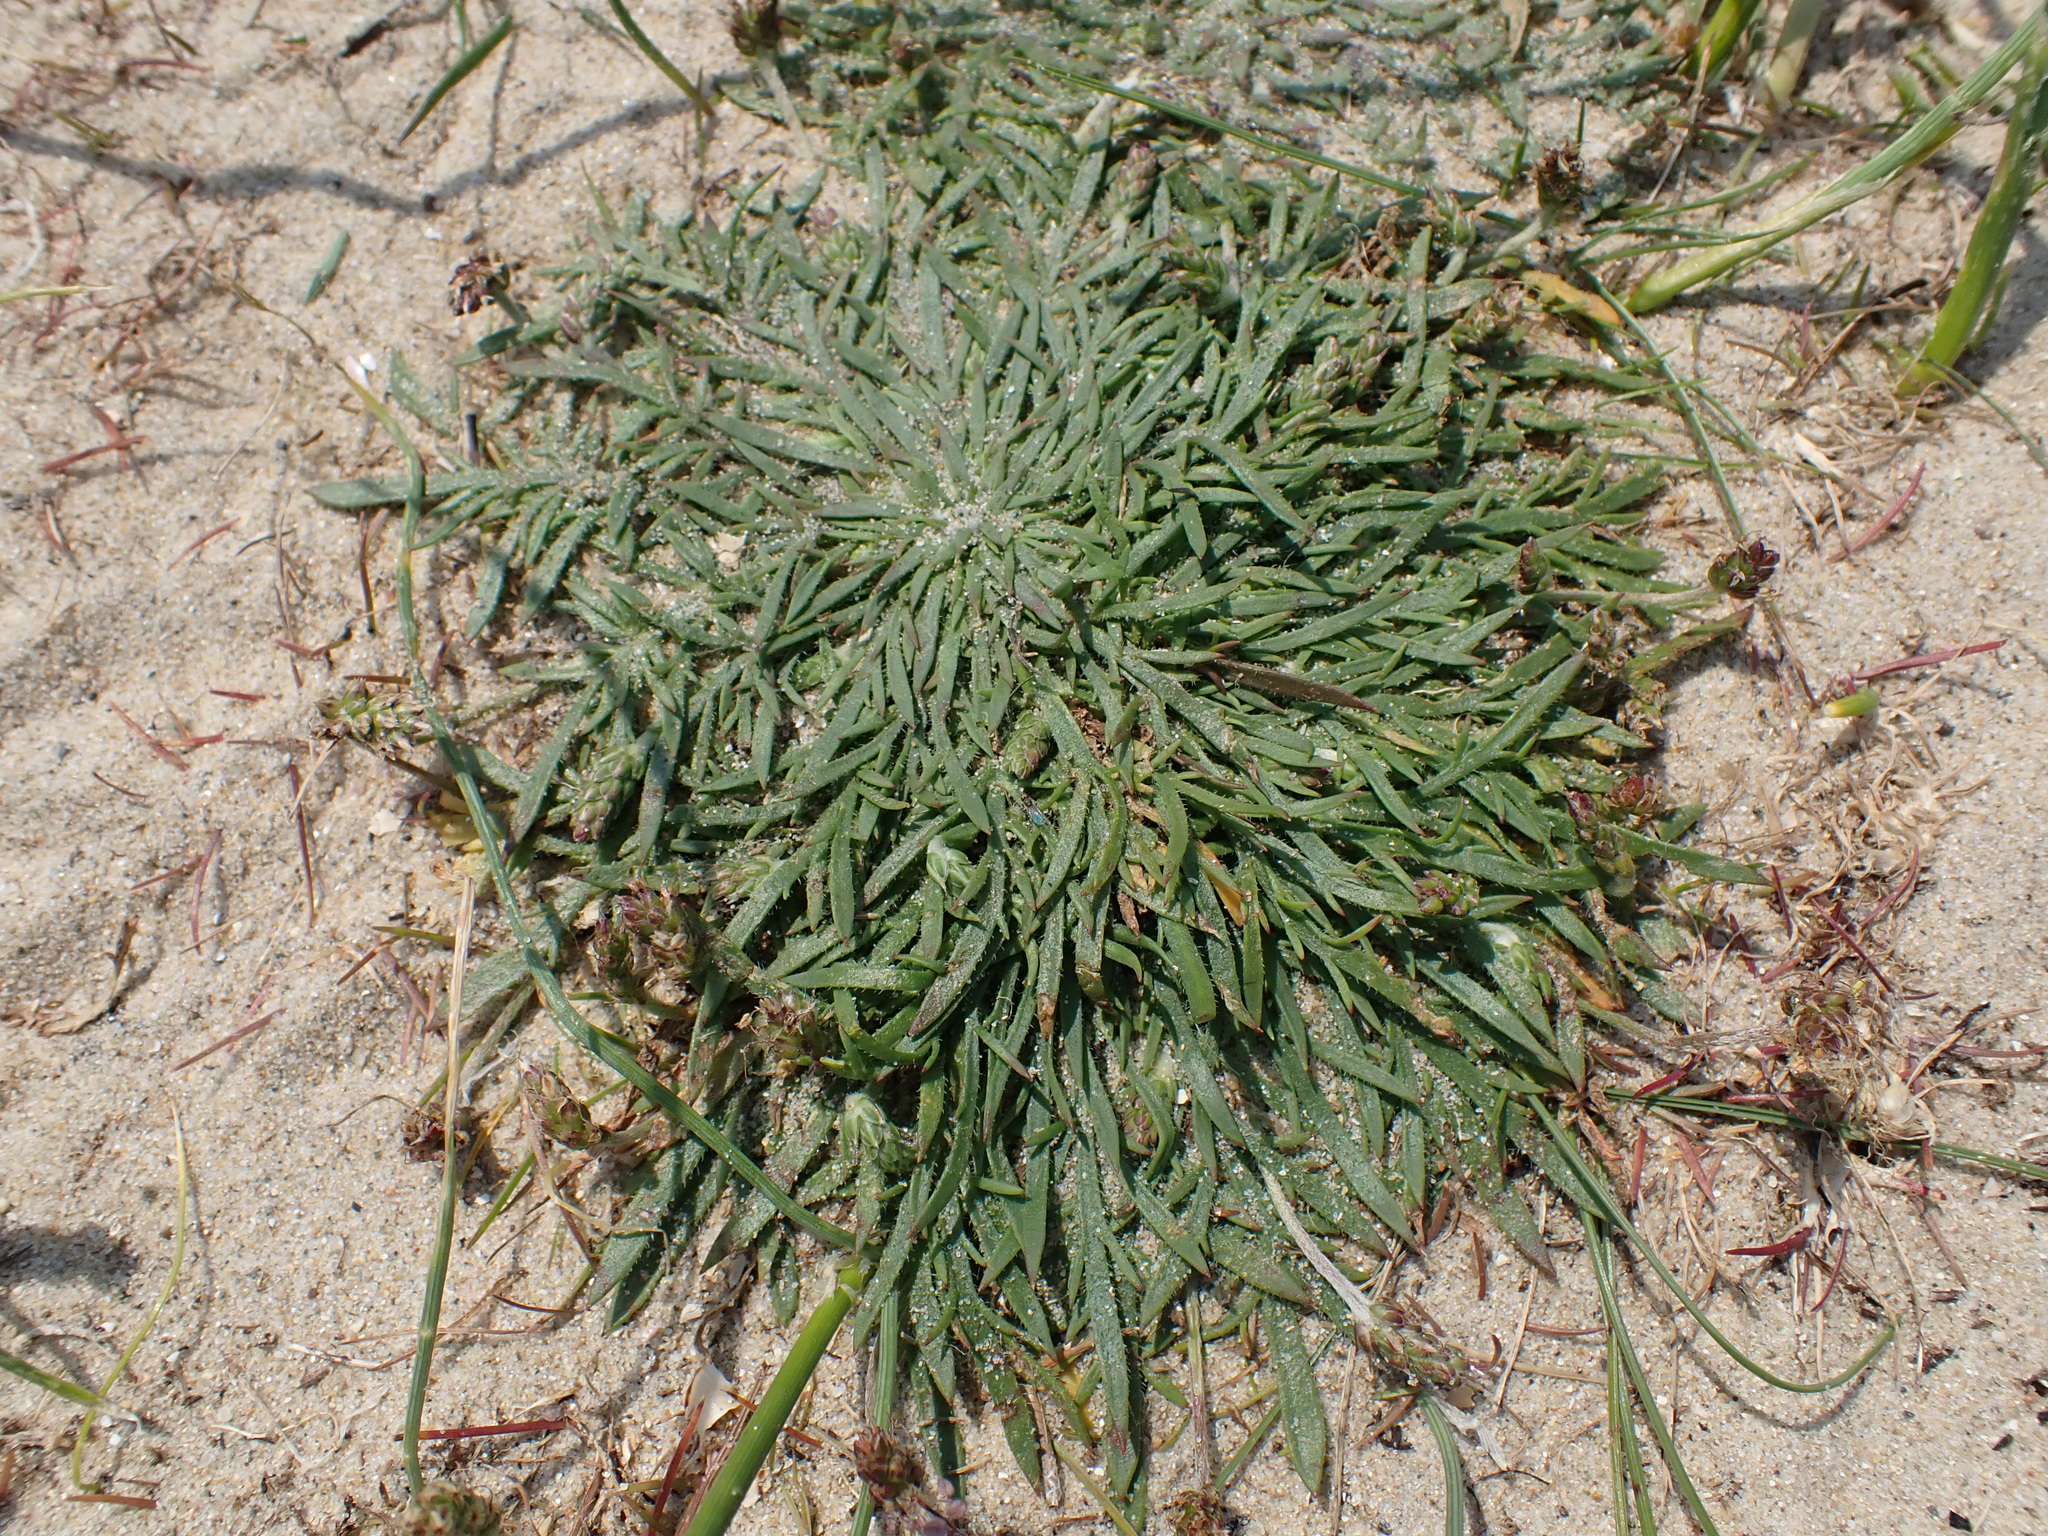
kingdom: Plantae
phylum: Tracheophyta
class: Magnoliopsida
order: Lamiales
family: Plantaginaceae
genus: Plantago
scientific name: Plantago coronopus
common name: Buck's-horn plantain
